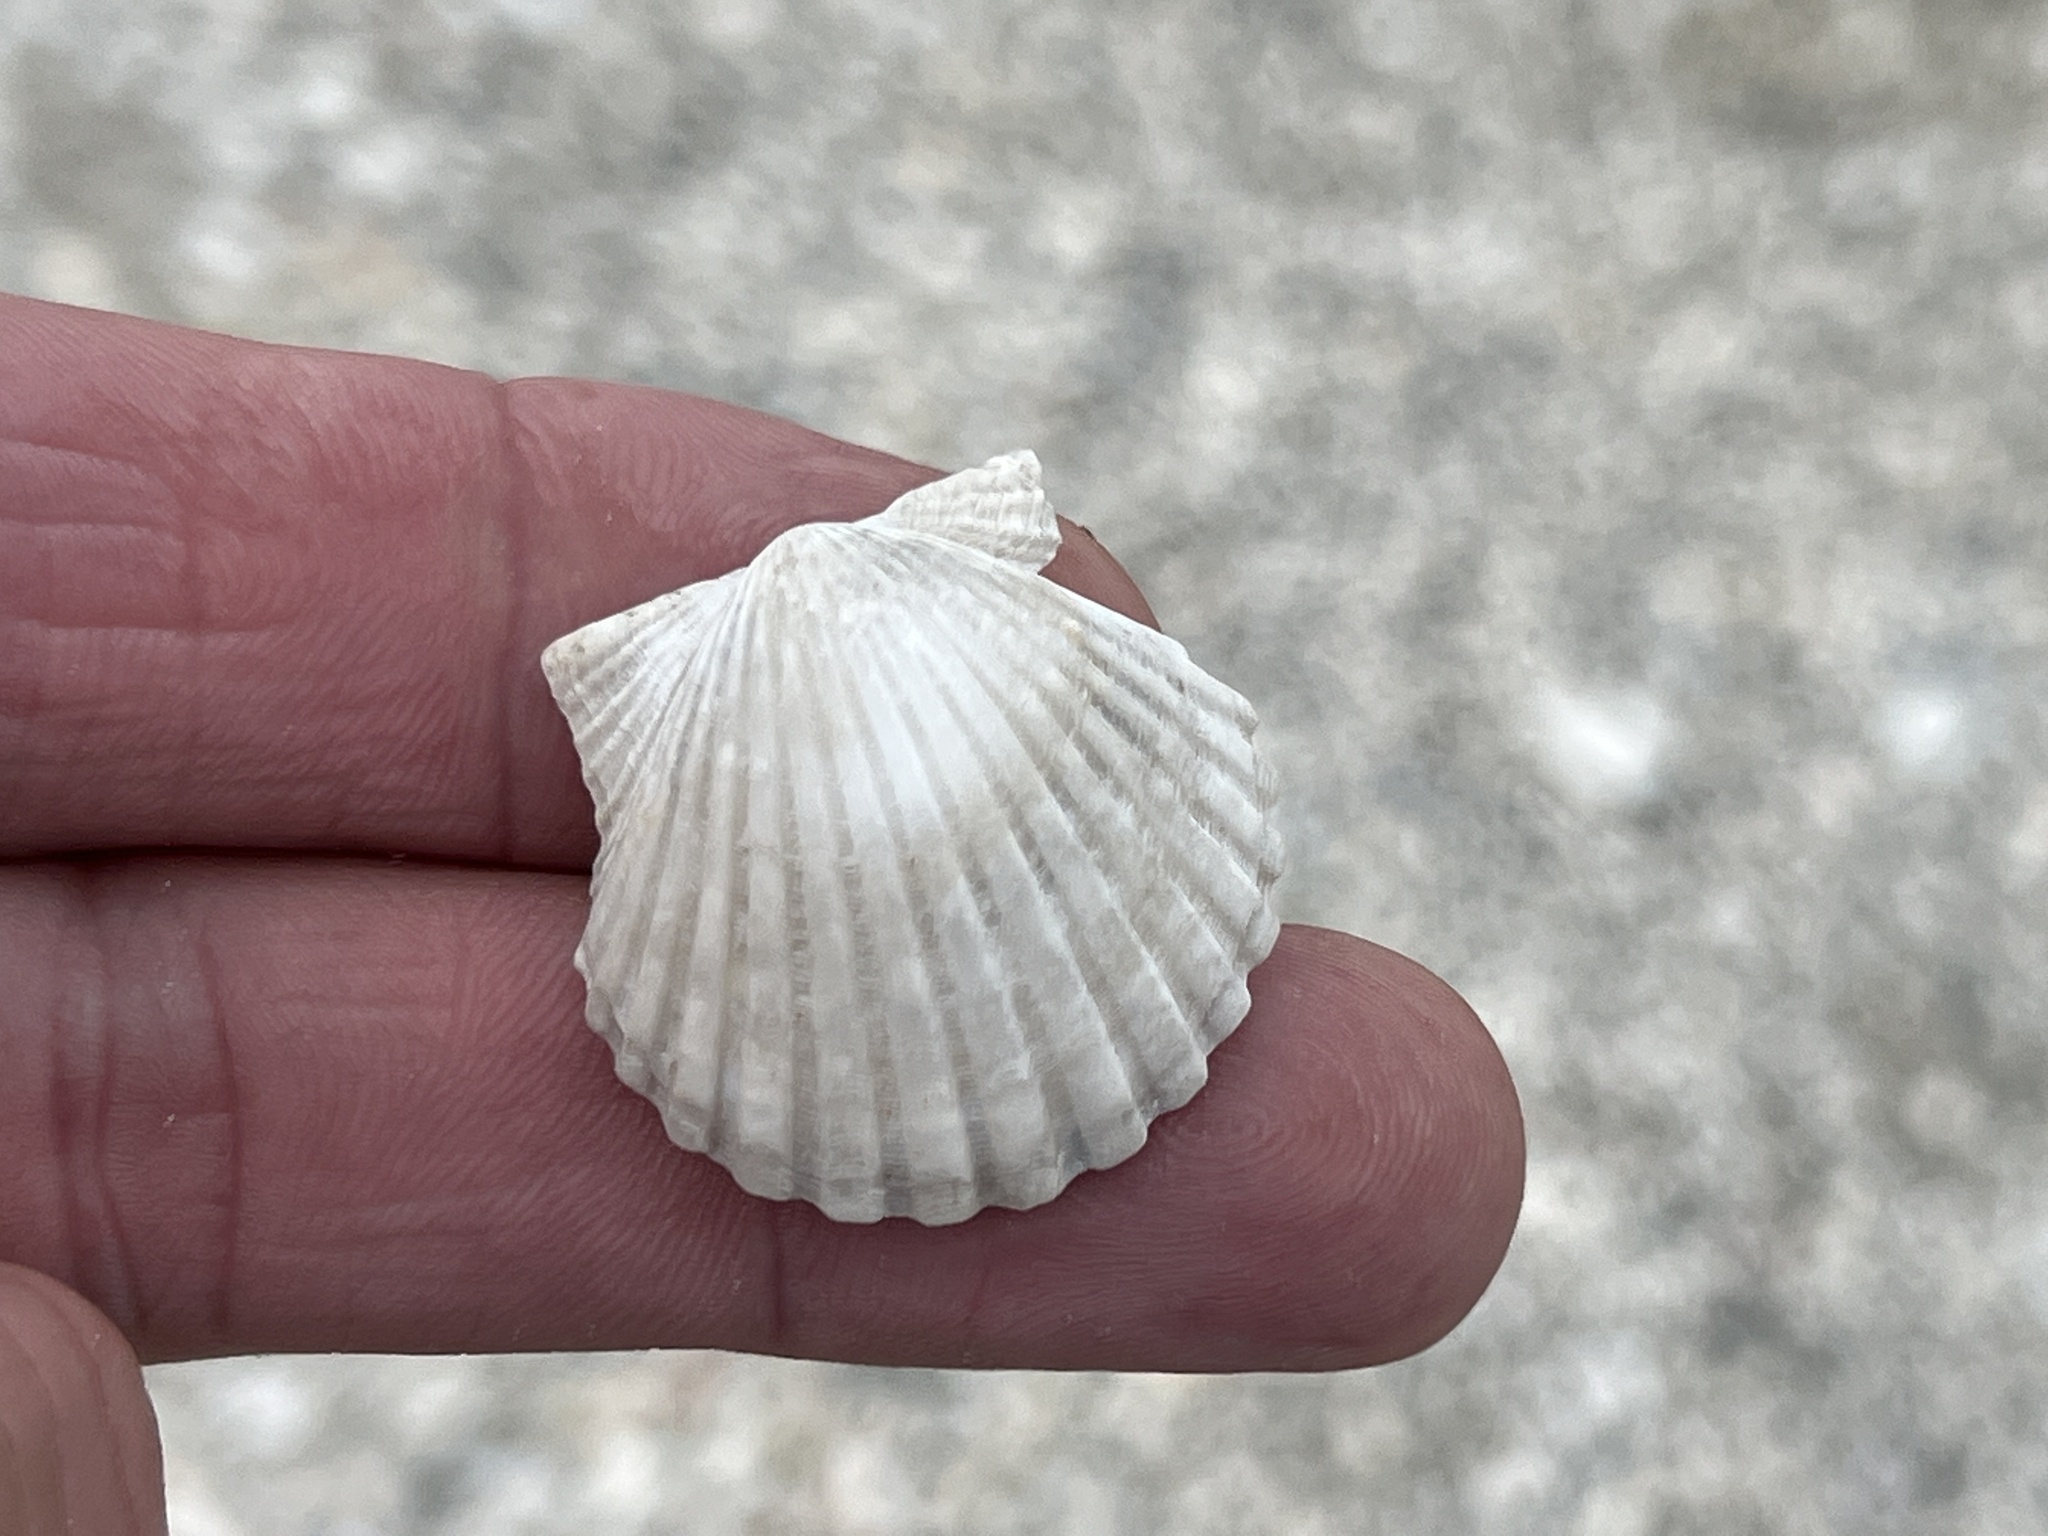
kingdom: Animalia
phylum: Mollusca
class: Bivalvia
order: Pectinida
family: Pectinidae
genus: Argopecten
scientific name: Argopecten irradians
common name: Atlantic bay scallop
